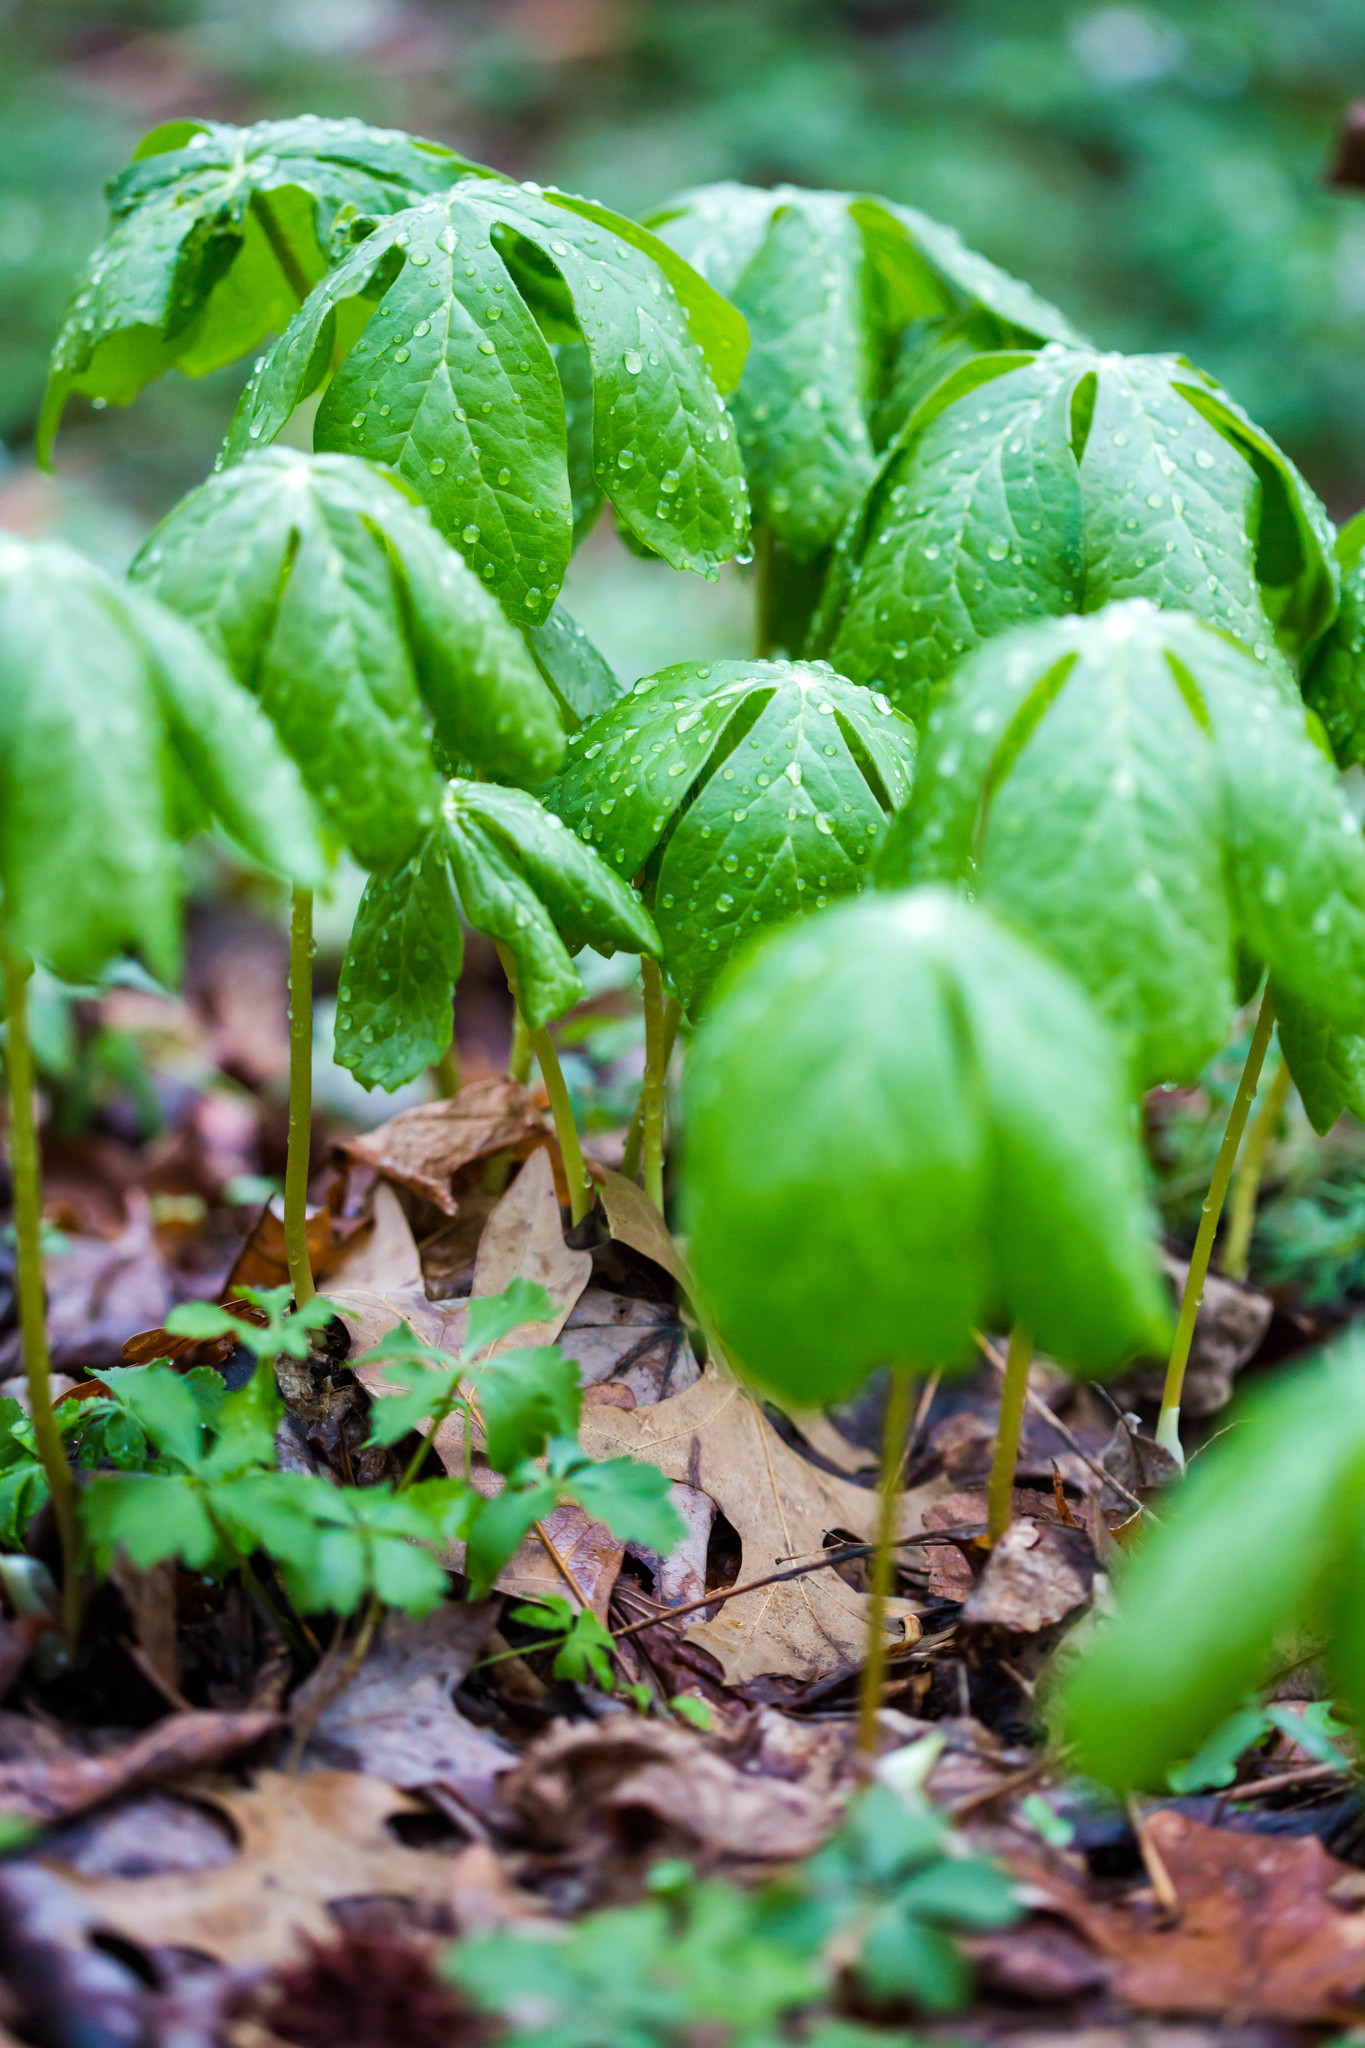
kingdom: Plantae
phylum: Tracheophyta
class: Magnoliopsida
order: Ranunculales
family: Berberidaceae
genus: Podophyllum
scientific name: Podophyllum peltatum
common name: Wild mandrake
